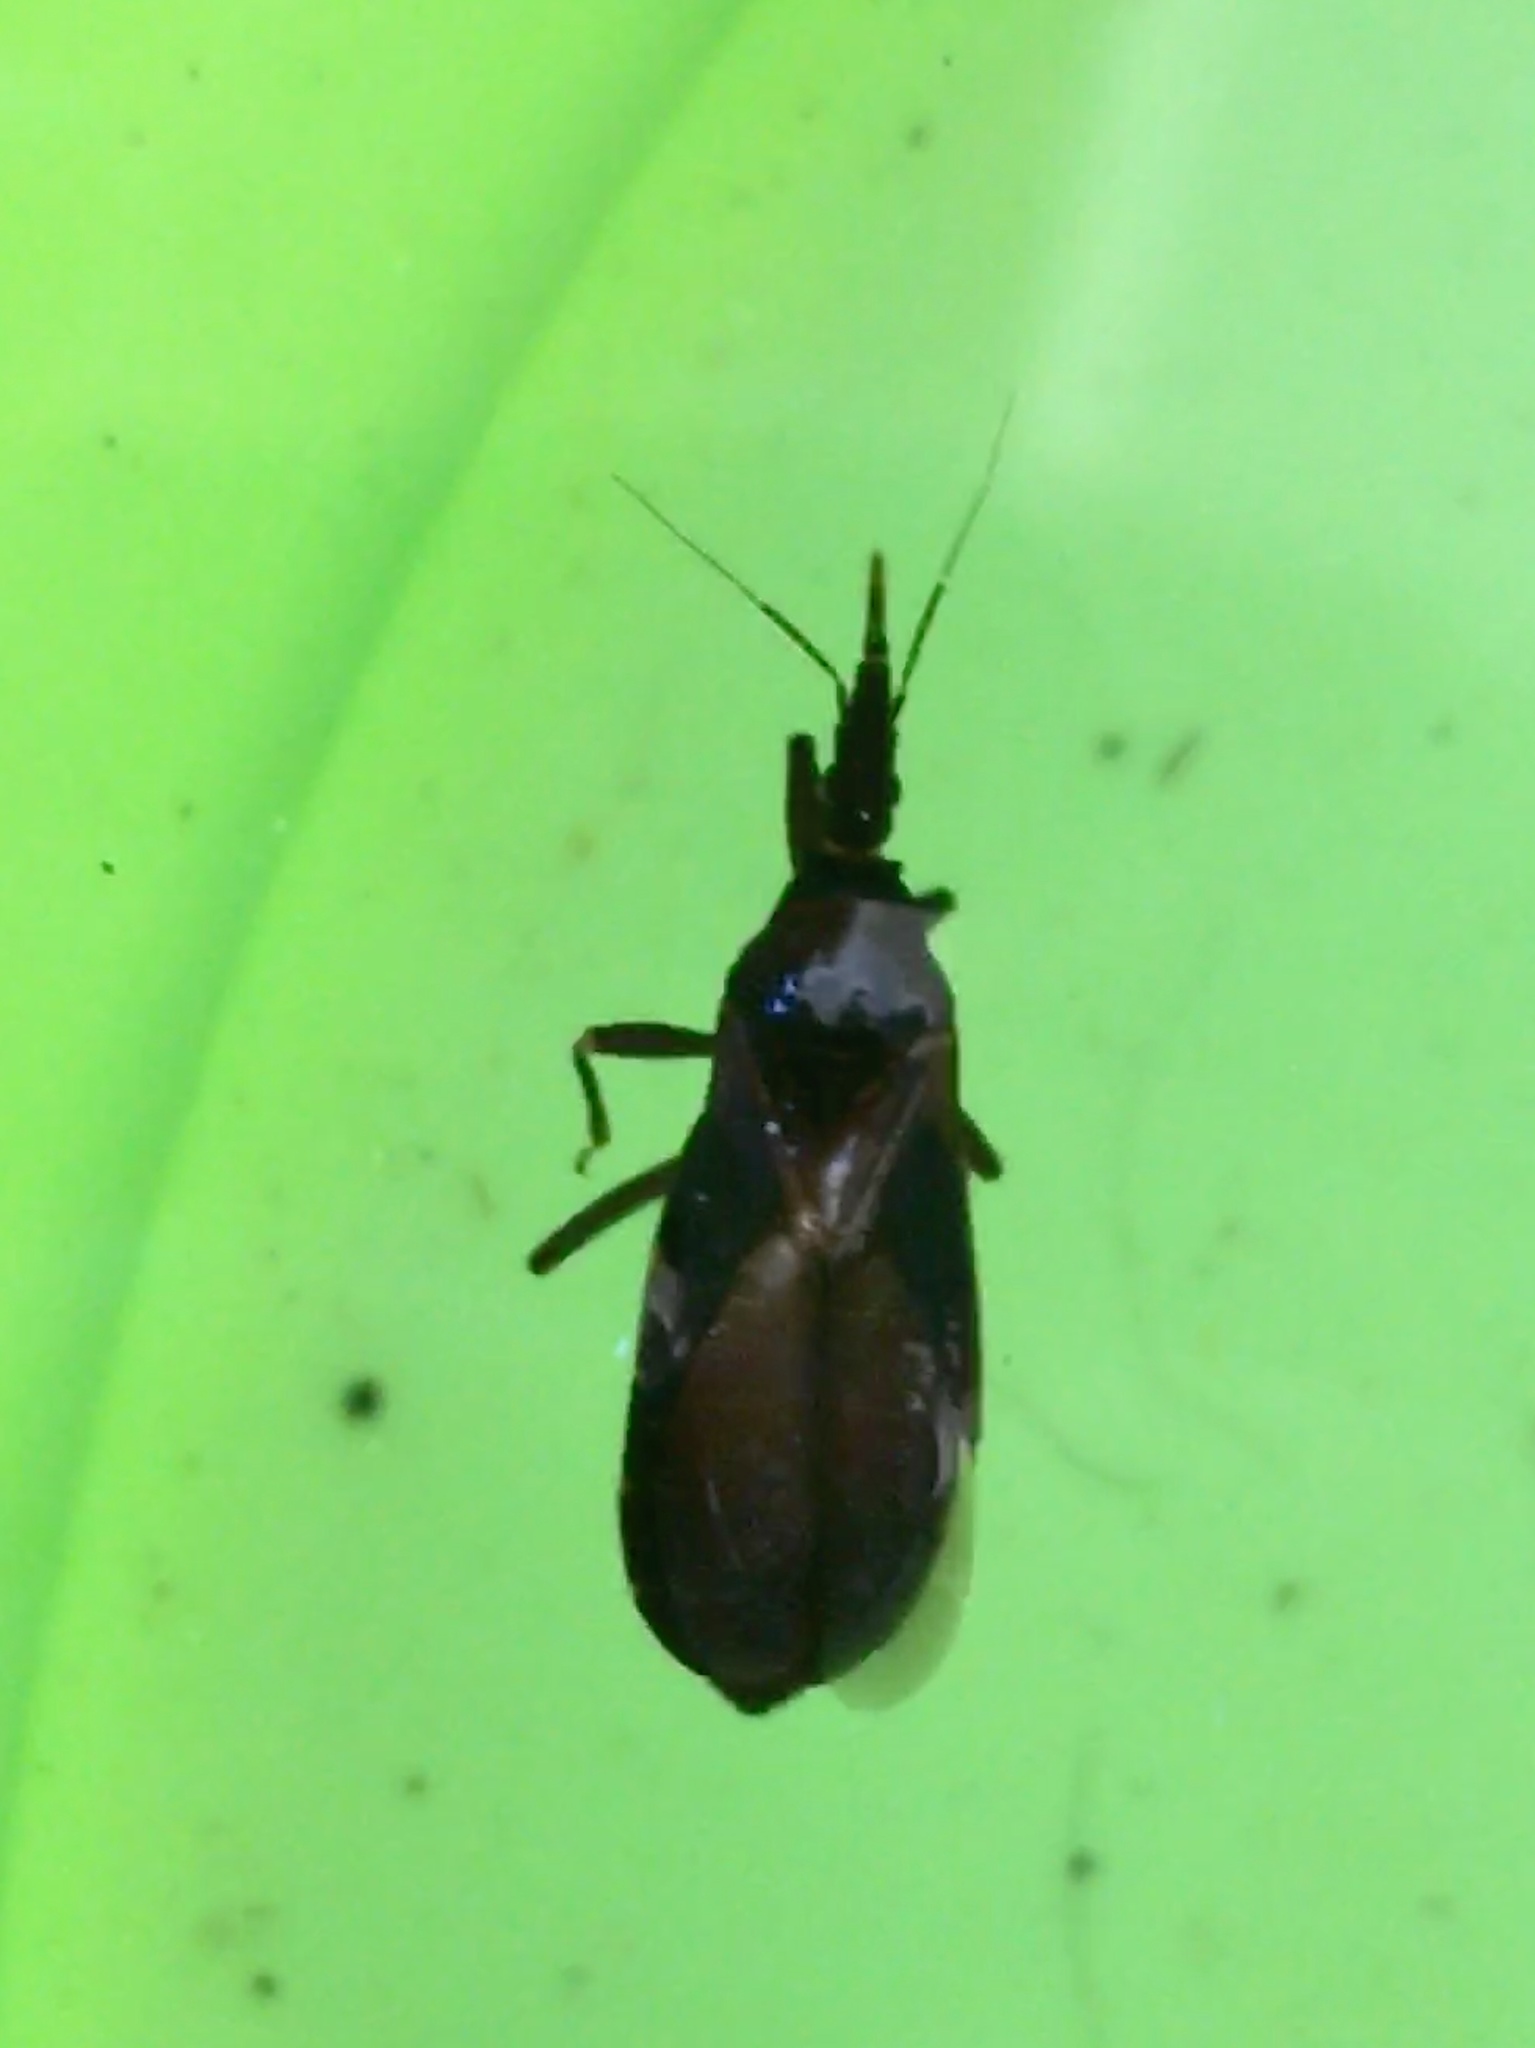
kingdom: Animalia
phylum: Arthropoda
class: Insecta
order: Hemiptera
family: Reduviidae
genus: Triatoma
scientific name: Triatoma protracta
